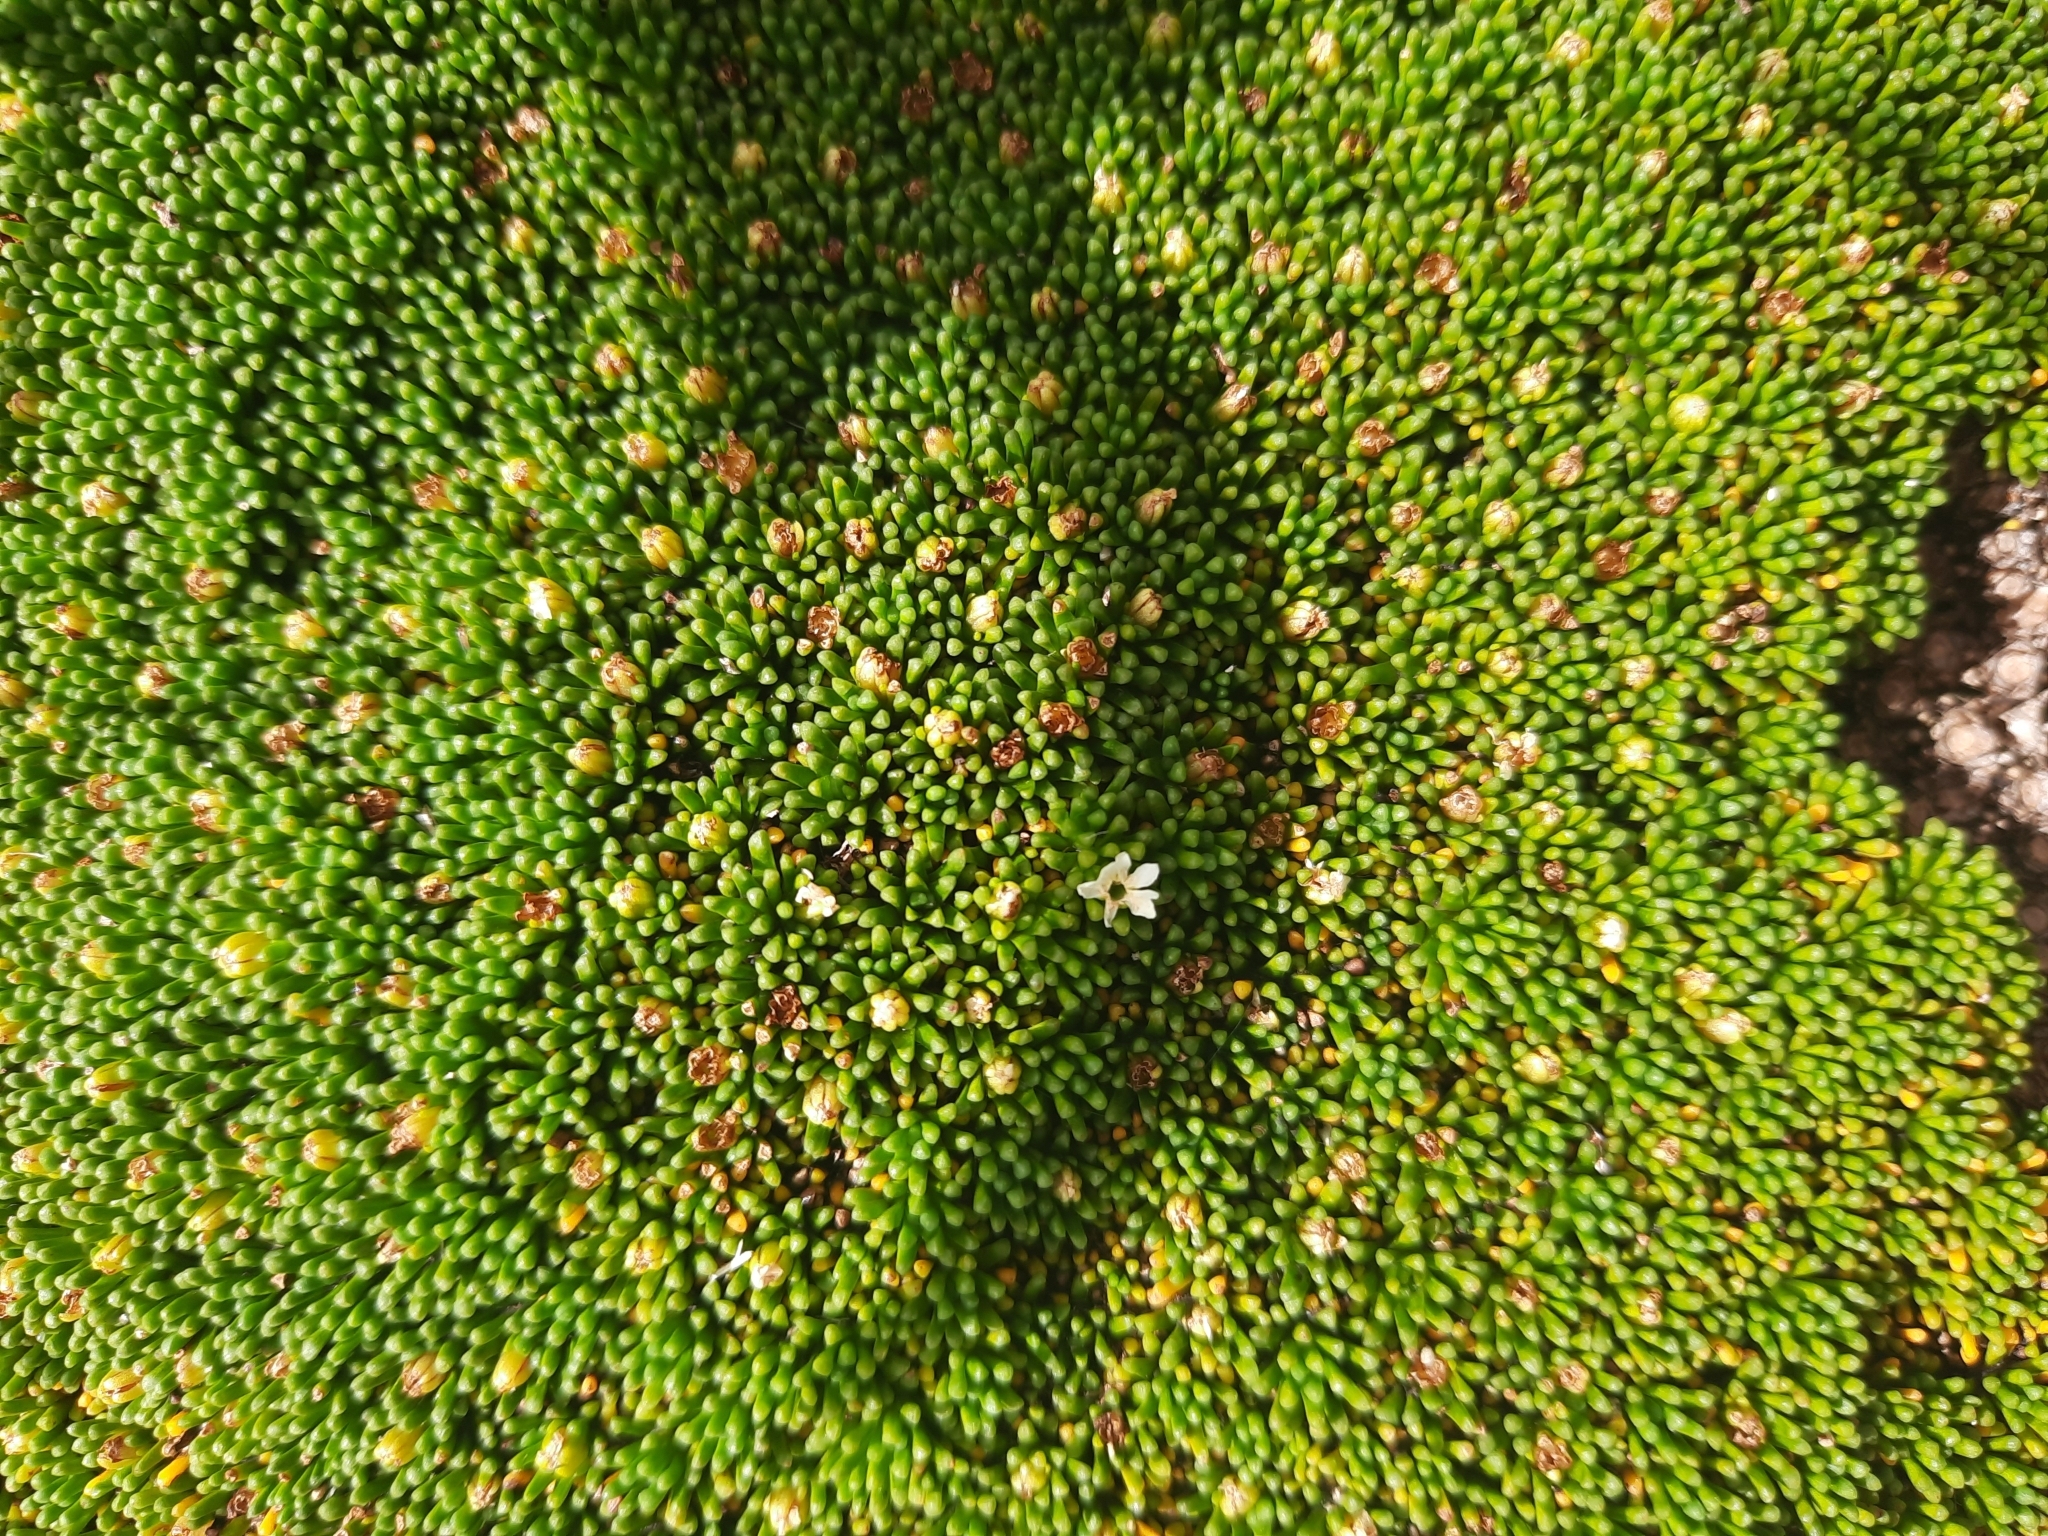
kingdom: Plantae
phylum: Tracheophyta
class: Magnoliopsida
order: Asterales
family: Stylidiaceae
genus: Phyllachne
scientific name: Phyllachne colensoi
